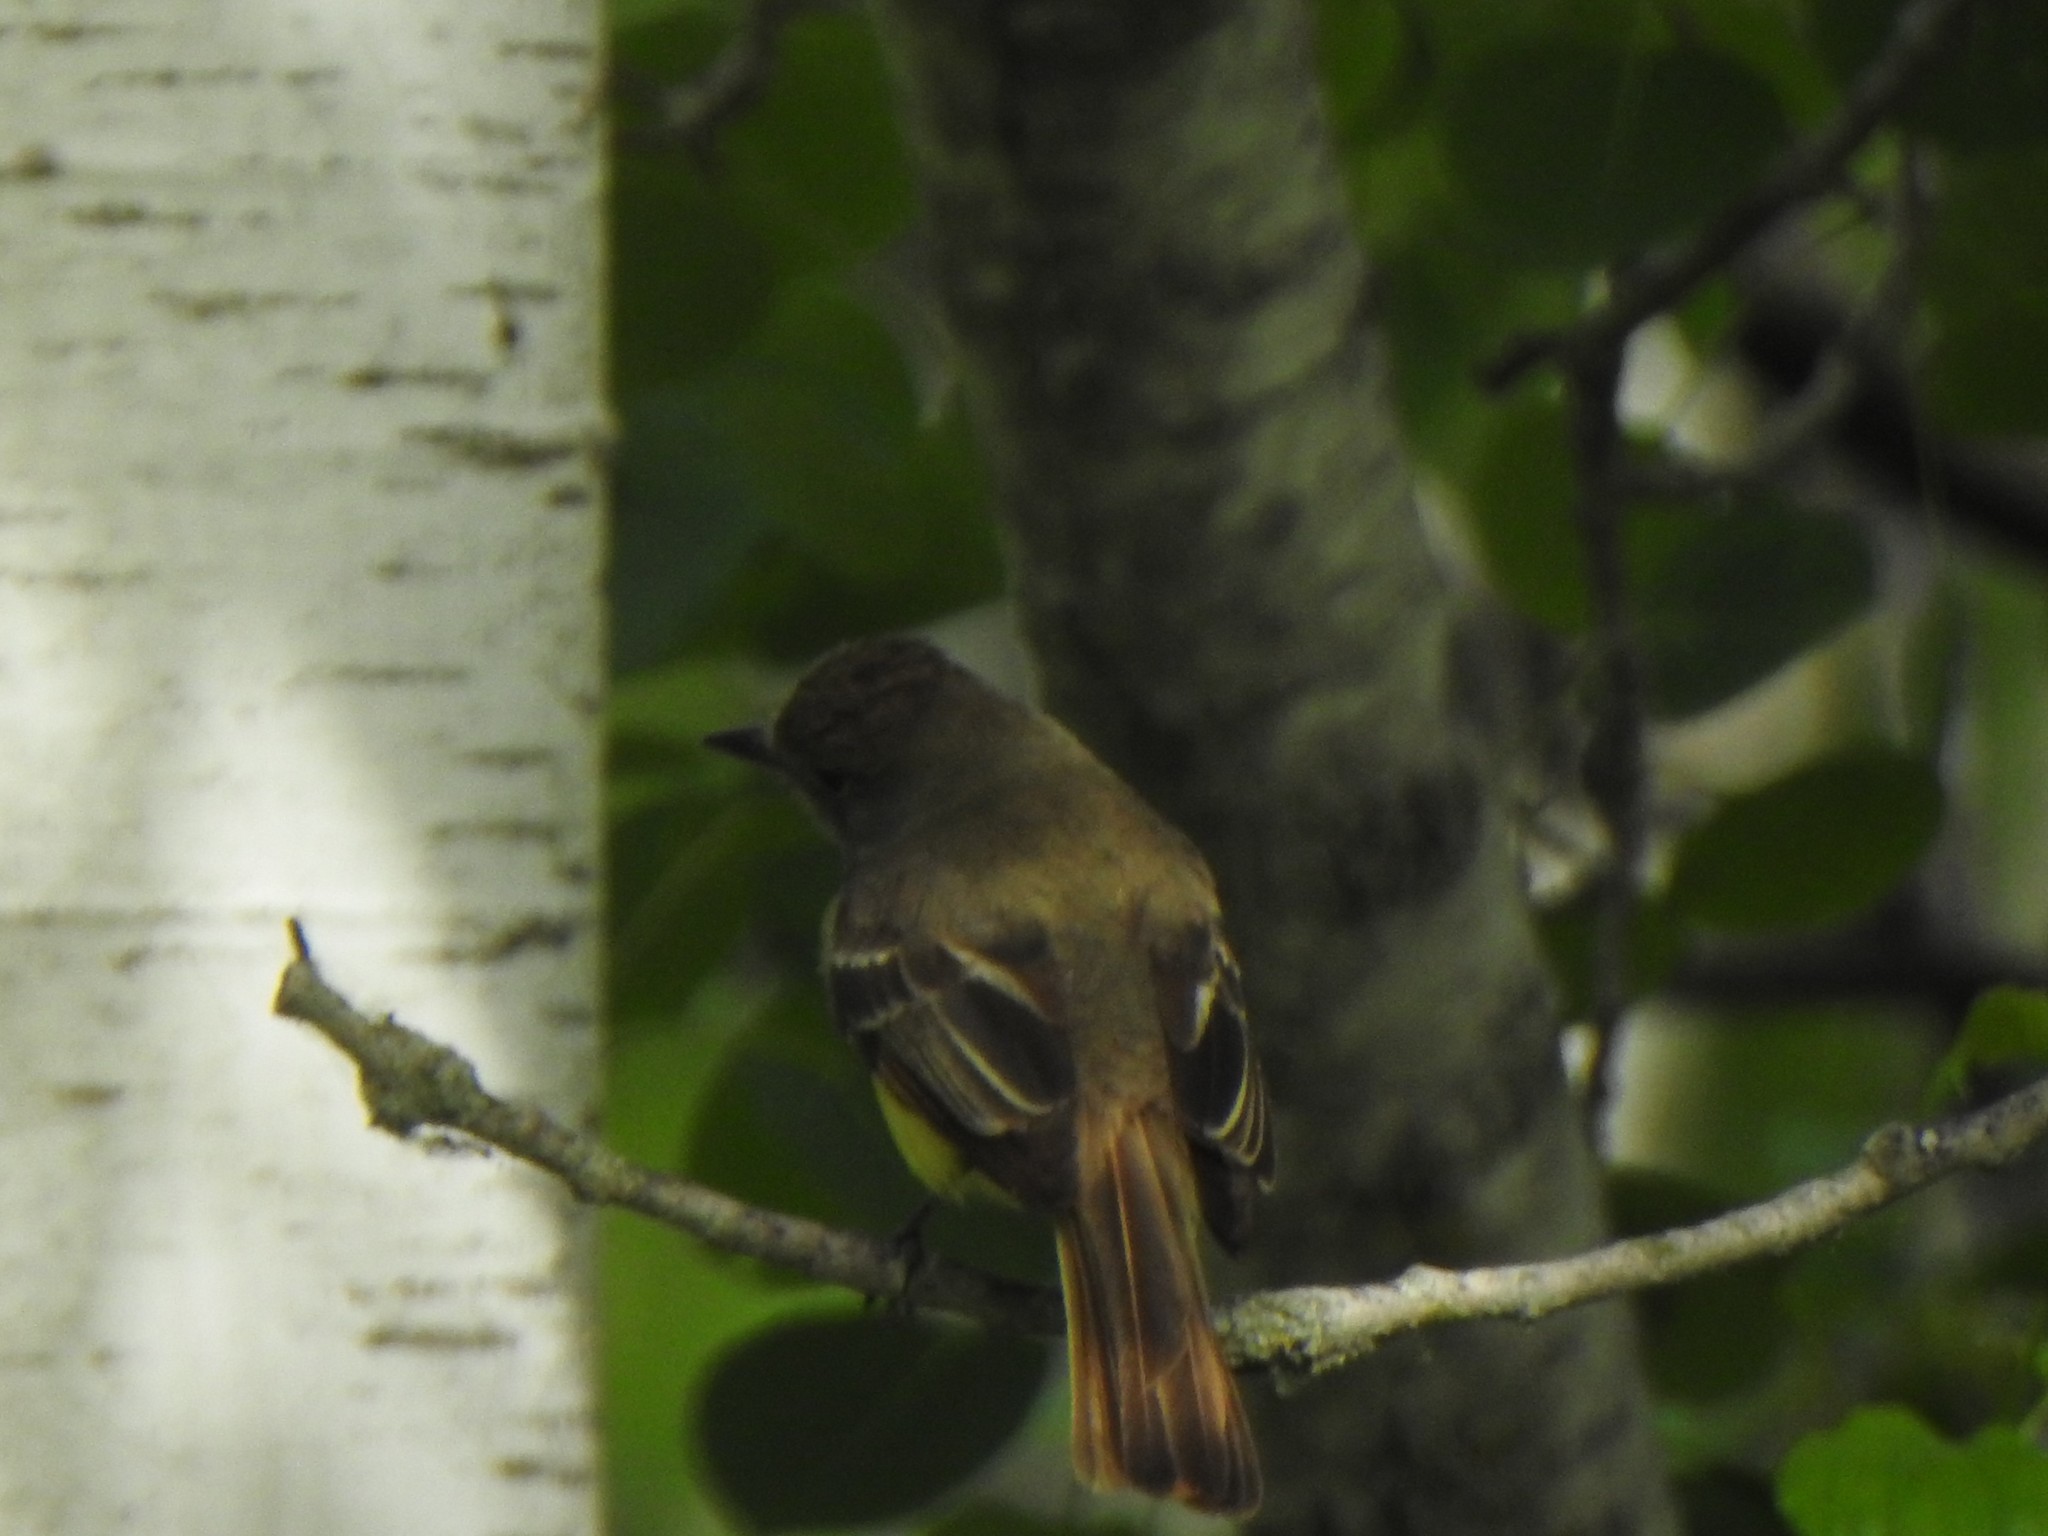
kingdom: Animalia
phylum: Chordata
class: Aves
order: Passeriformes
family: Tyrannidae
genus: Myiarchus
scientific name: Myiarchus crinitus
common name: Great crested flycatcher
